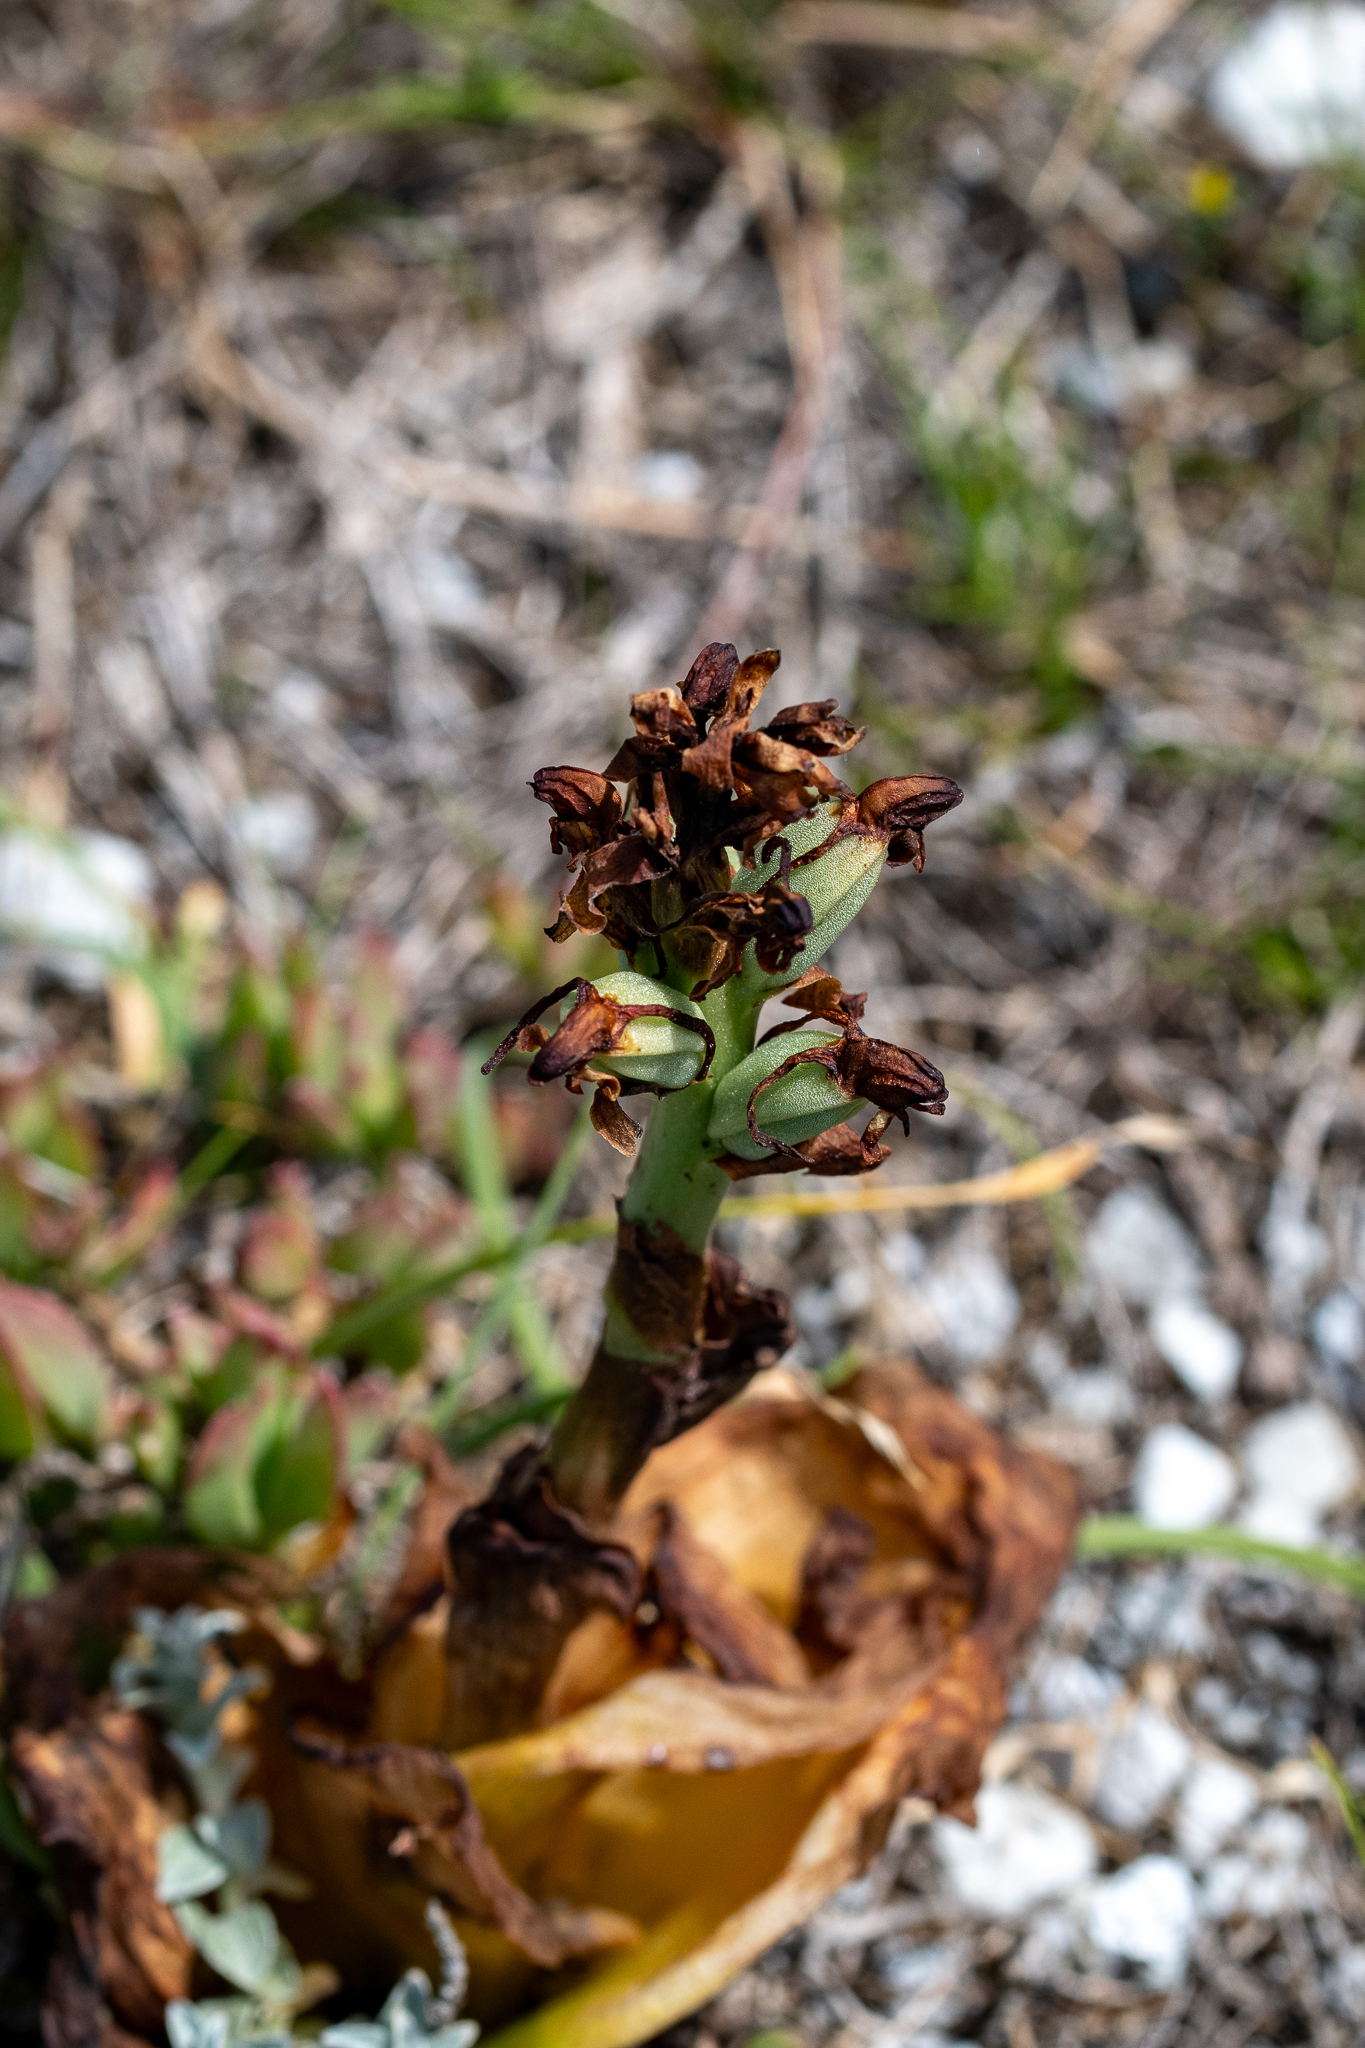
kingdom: Plantae
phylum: Tracheophyta
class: Liliopsida
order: Asparagales
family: Orchidaceae
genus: Satyrium
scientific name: Satyrium odorum
